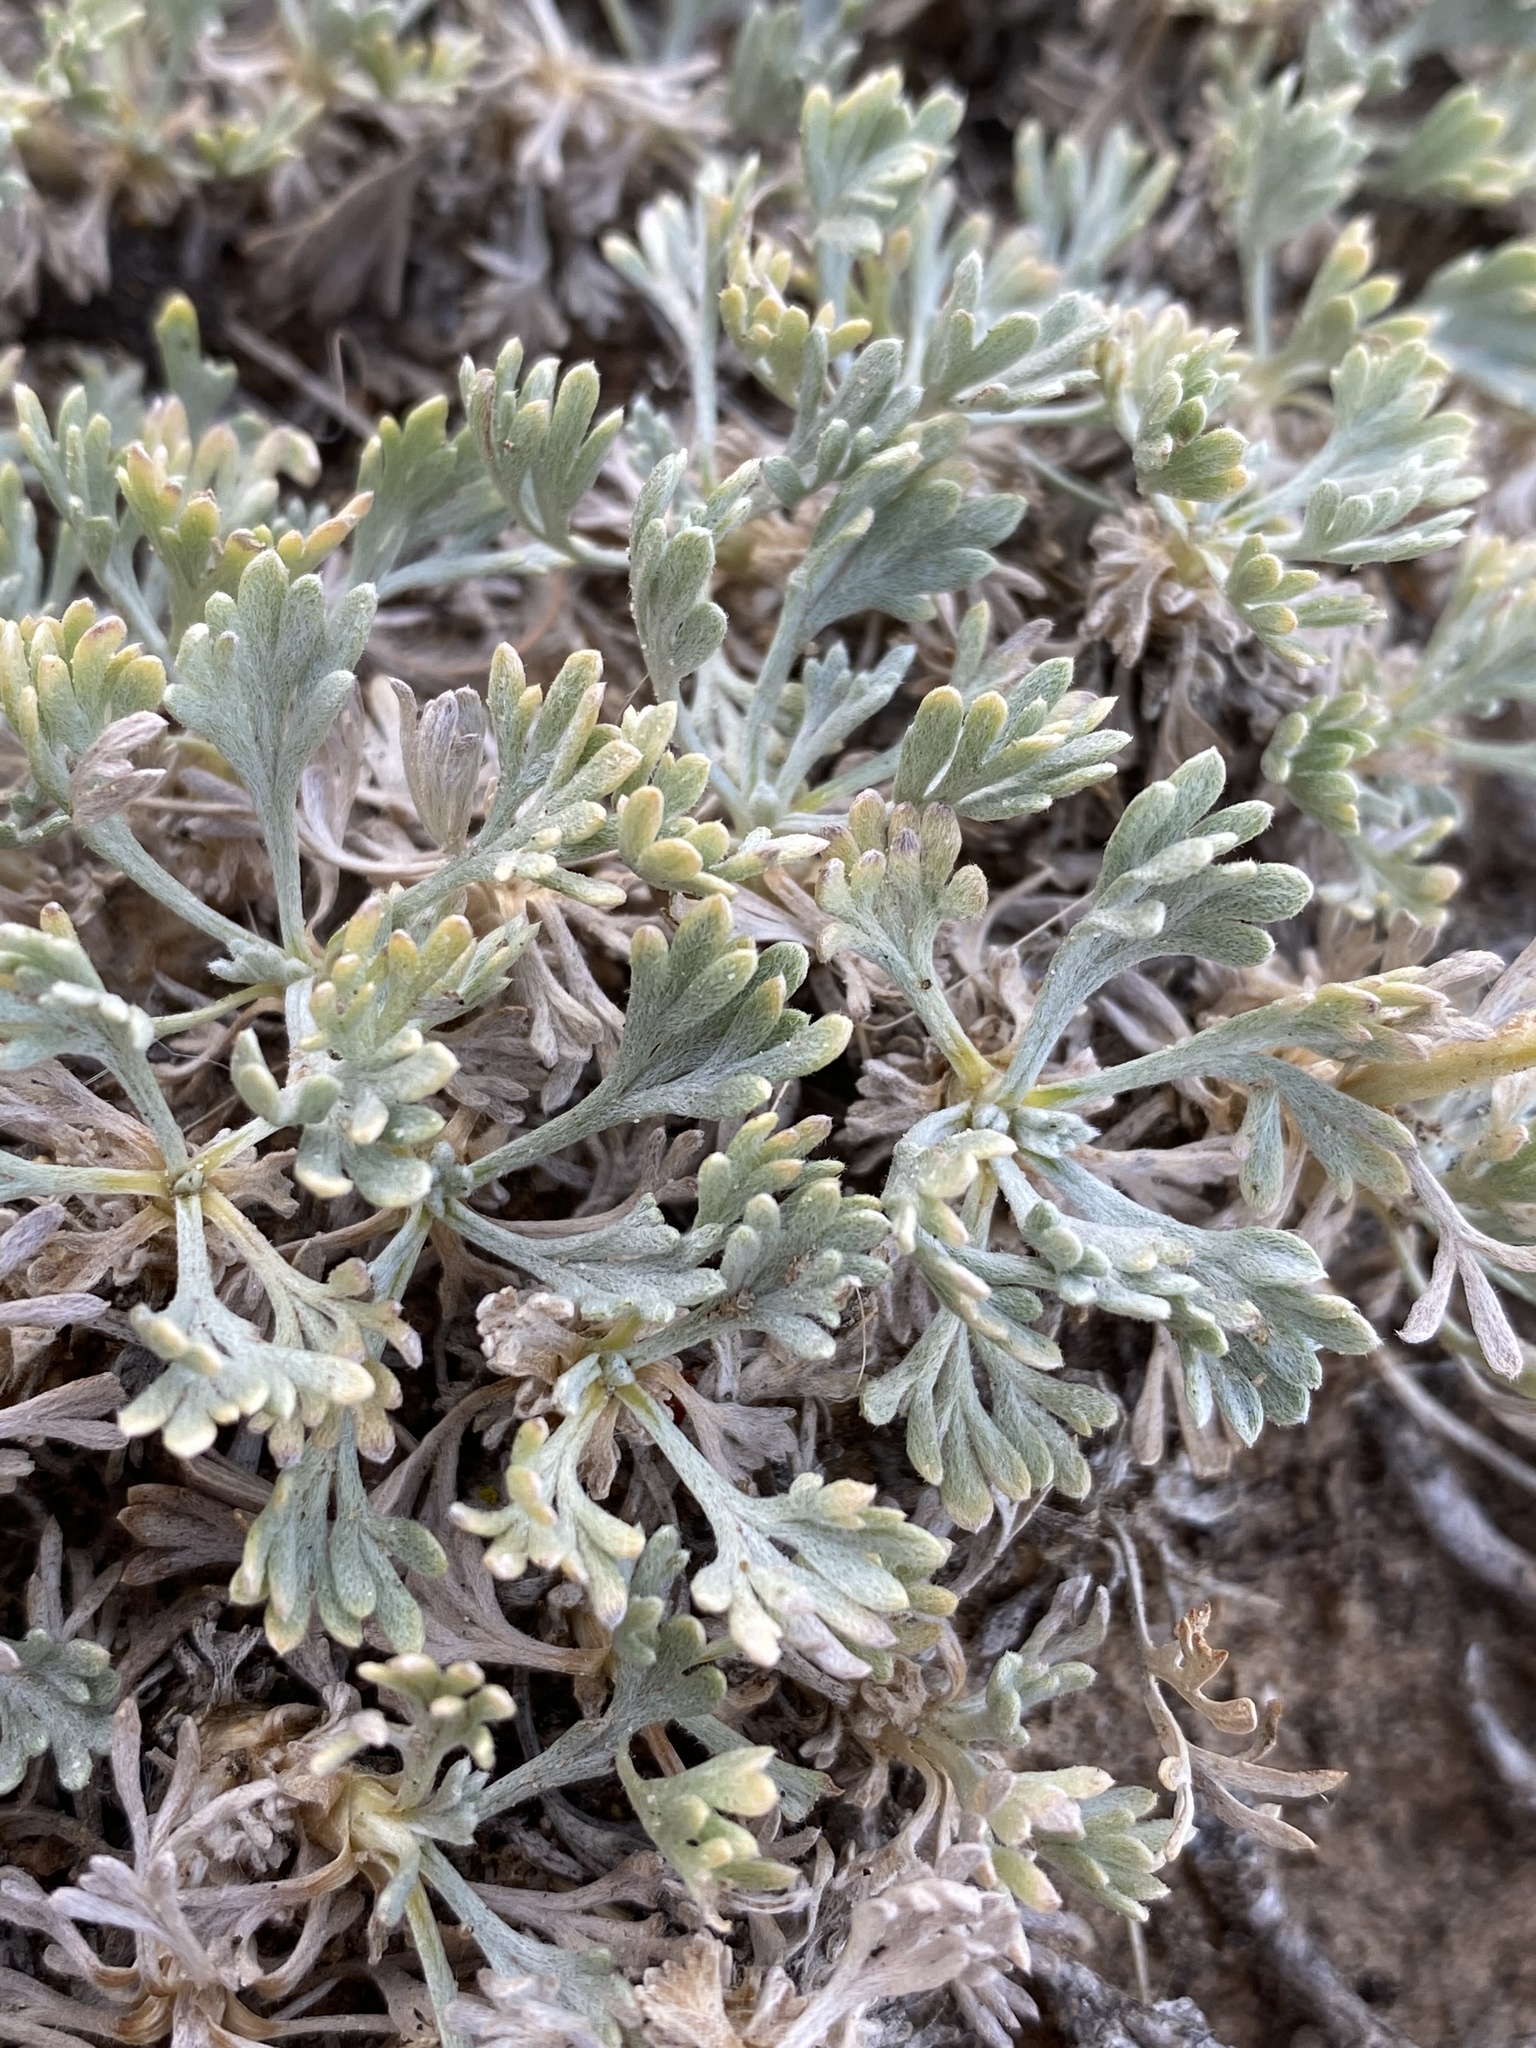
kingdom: Plantae
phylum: Tracheophyta
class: Magnoliopsida
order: Asterales
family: Asteraceae
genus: Artemisia
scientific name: Artemisia capitata
